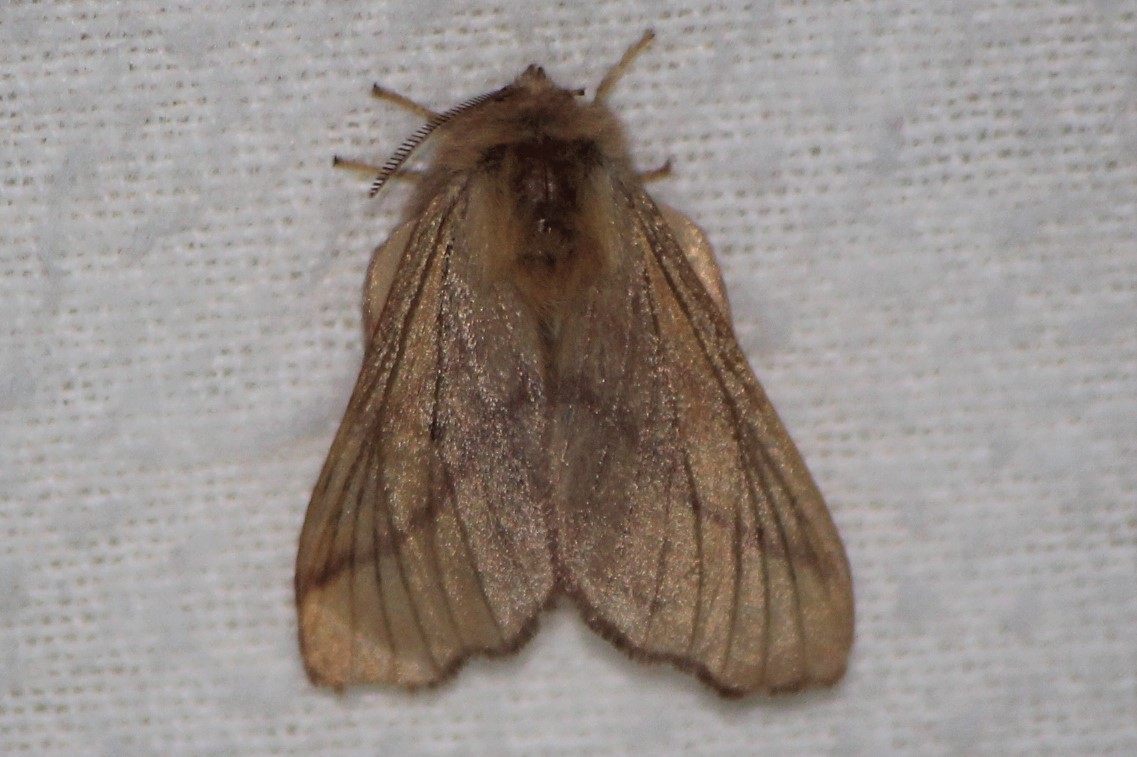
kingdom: Animalia
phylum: Arthropoda
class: Insecta
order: Lepidoptera
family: Lasiocampidae
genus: Malacosoma
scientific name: Malacosoma disstria
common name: Forest tent caterpillar
